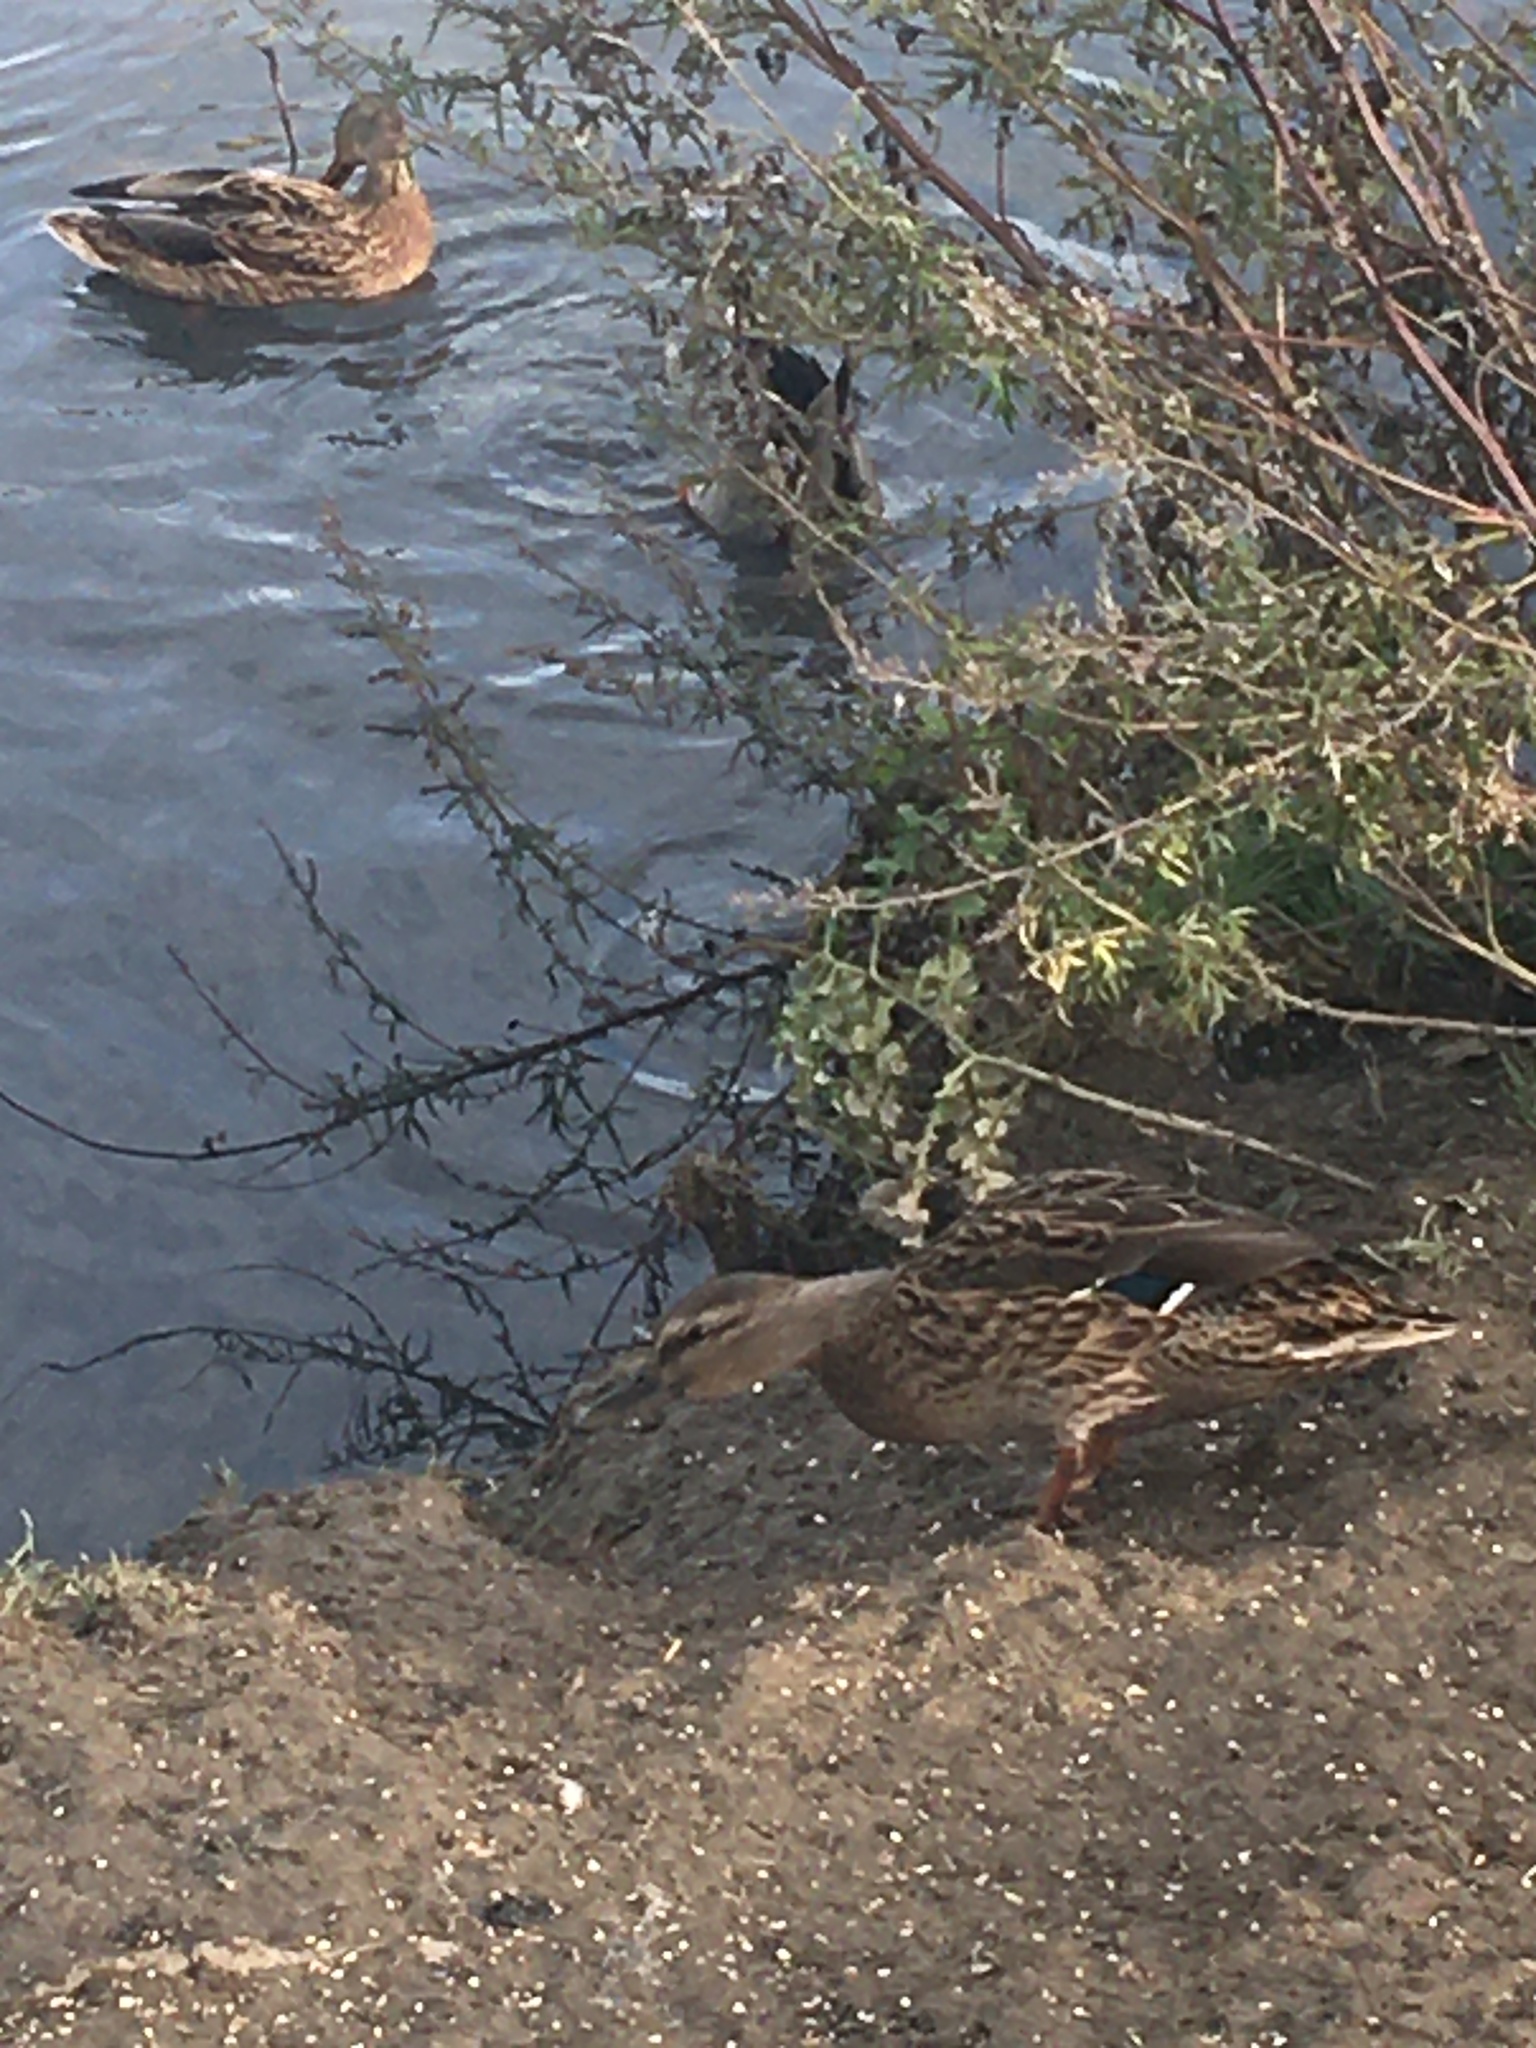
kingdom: Animalia
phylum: Chordata
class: Aves
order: Anseriformes
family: Anatidae
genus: Anas
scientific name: Anas platyrhynchos
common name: Mallard
